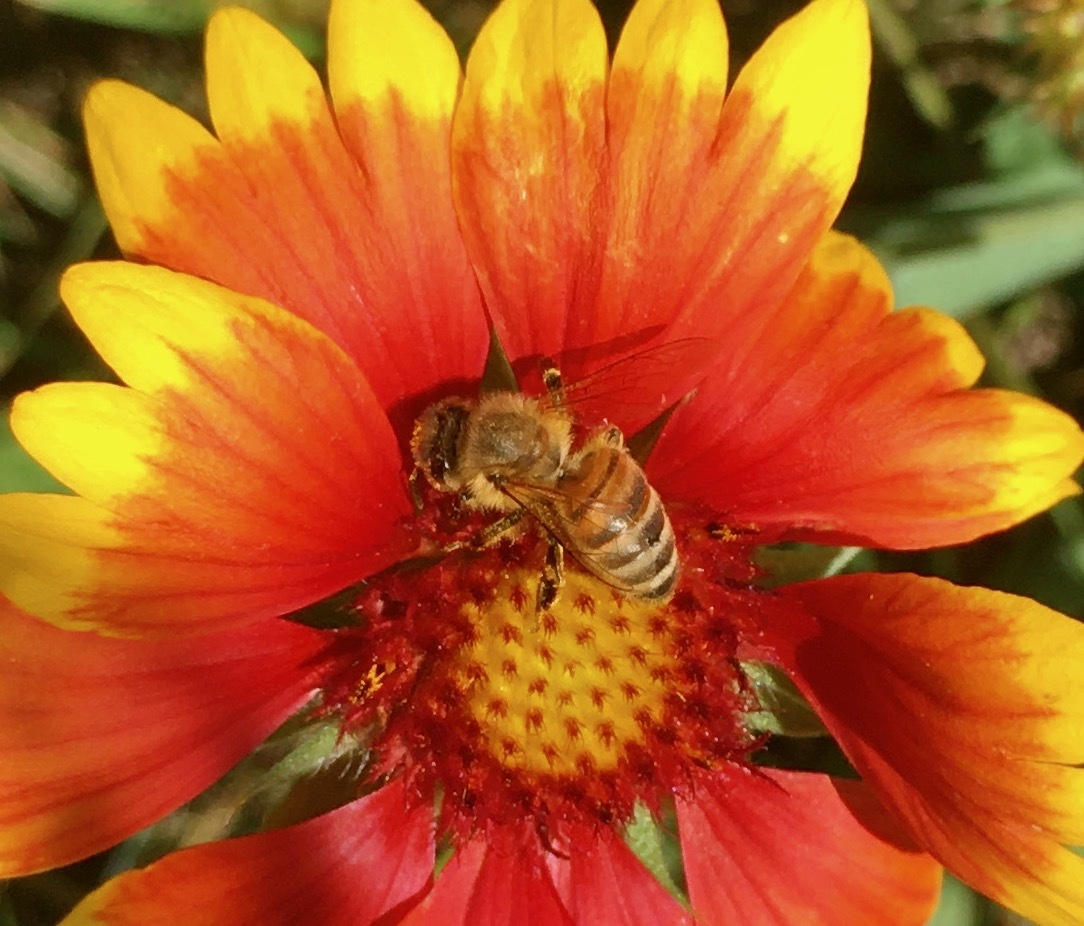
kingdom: Plantae
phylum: Tracheophyta
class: Magnoliopsida
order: Asterales
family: Asteraceae
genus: Gaillardia
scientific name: Gaillardia pulchella
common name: Firewheel
